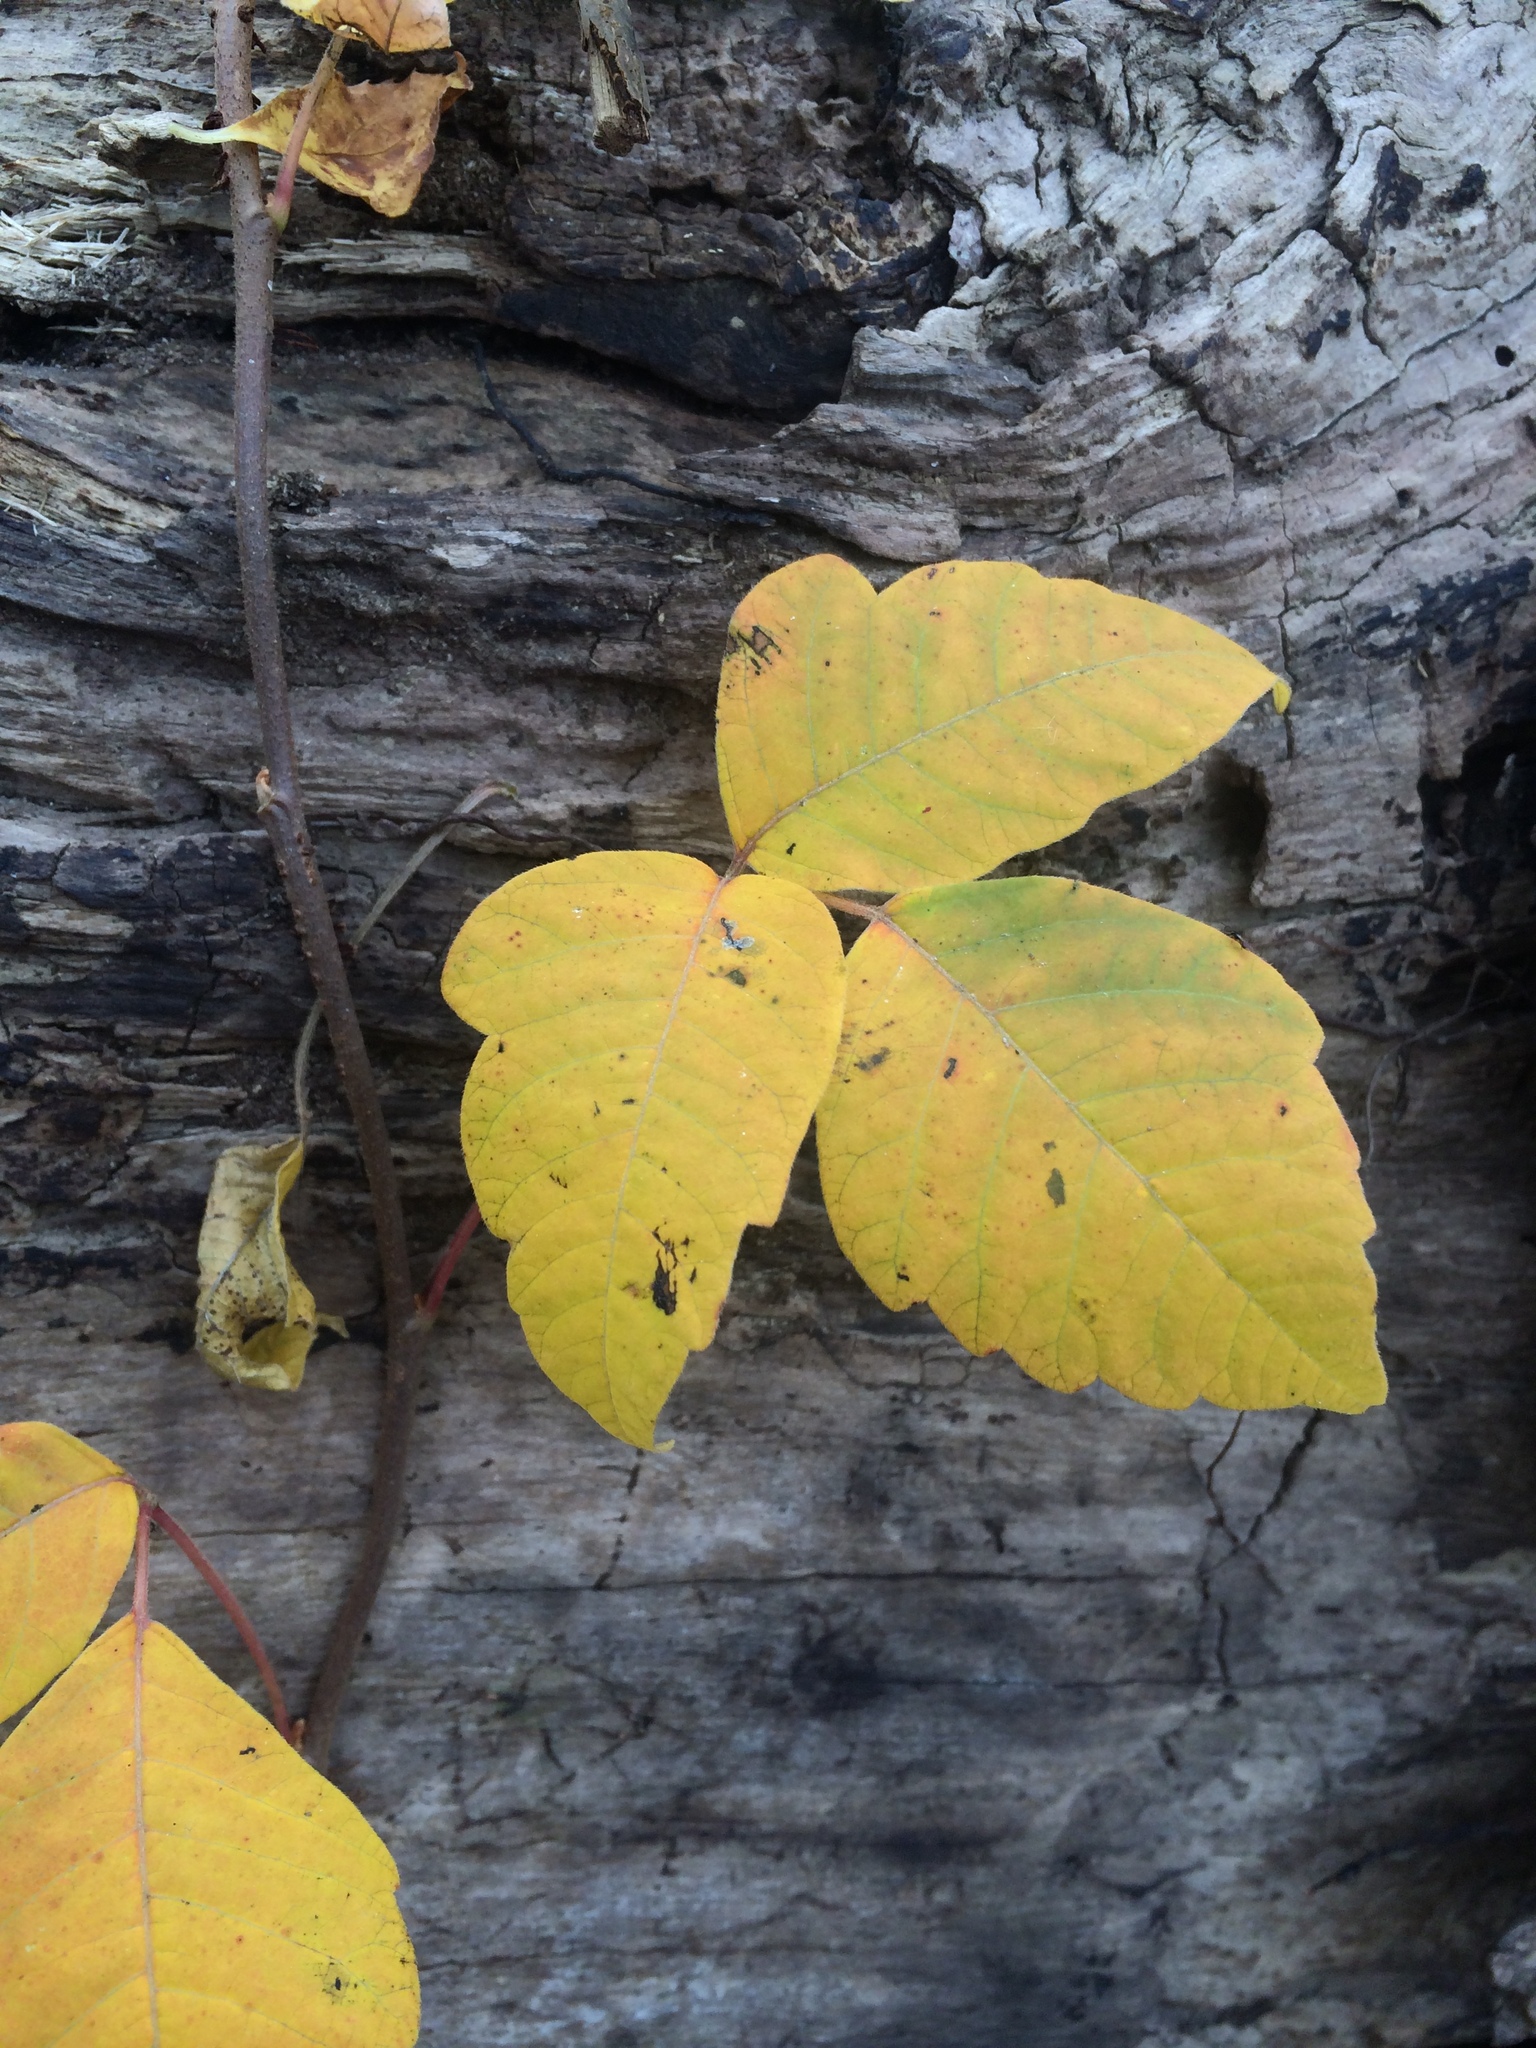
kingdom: Plantae
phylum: Tracheophyta
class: Magnoliopsida
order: Sapindales
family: Anacardiaceae
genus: Toxicodendron
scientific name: Toxicodendron radicans
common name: Poison ivy
